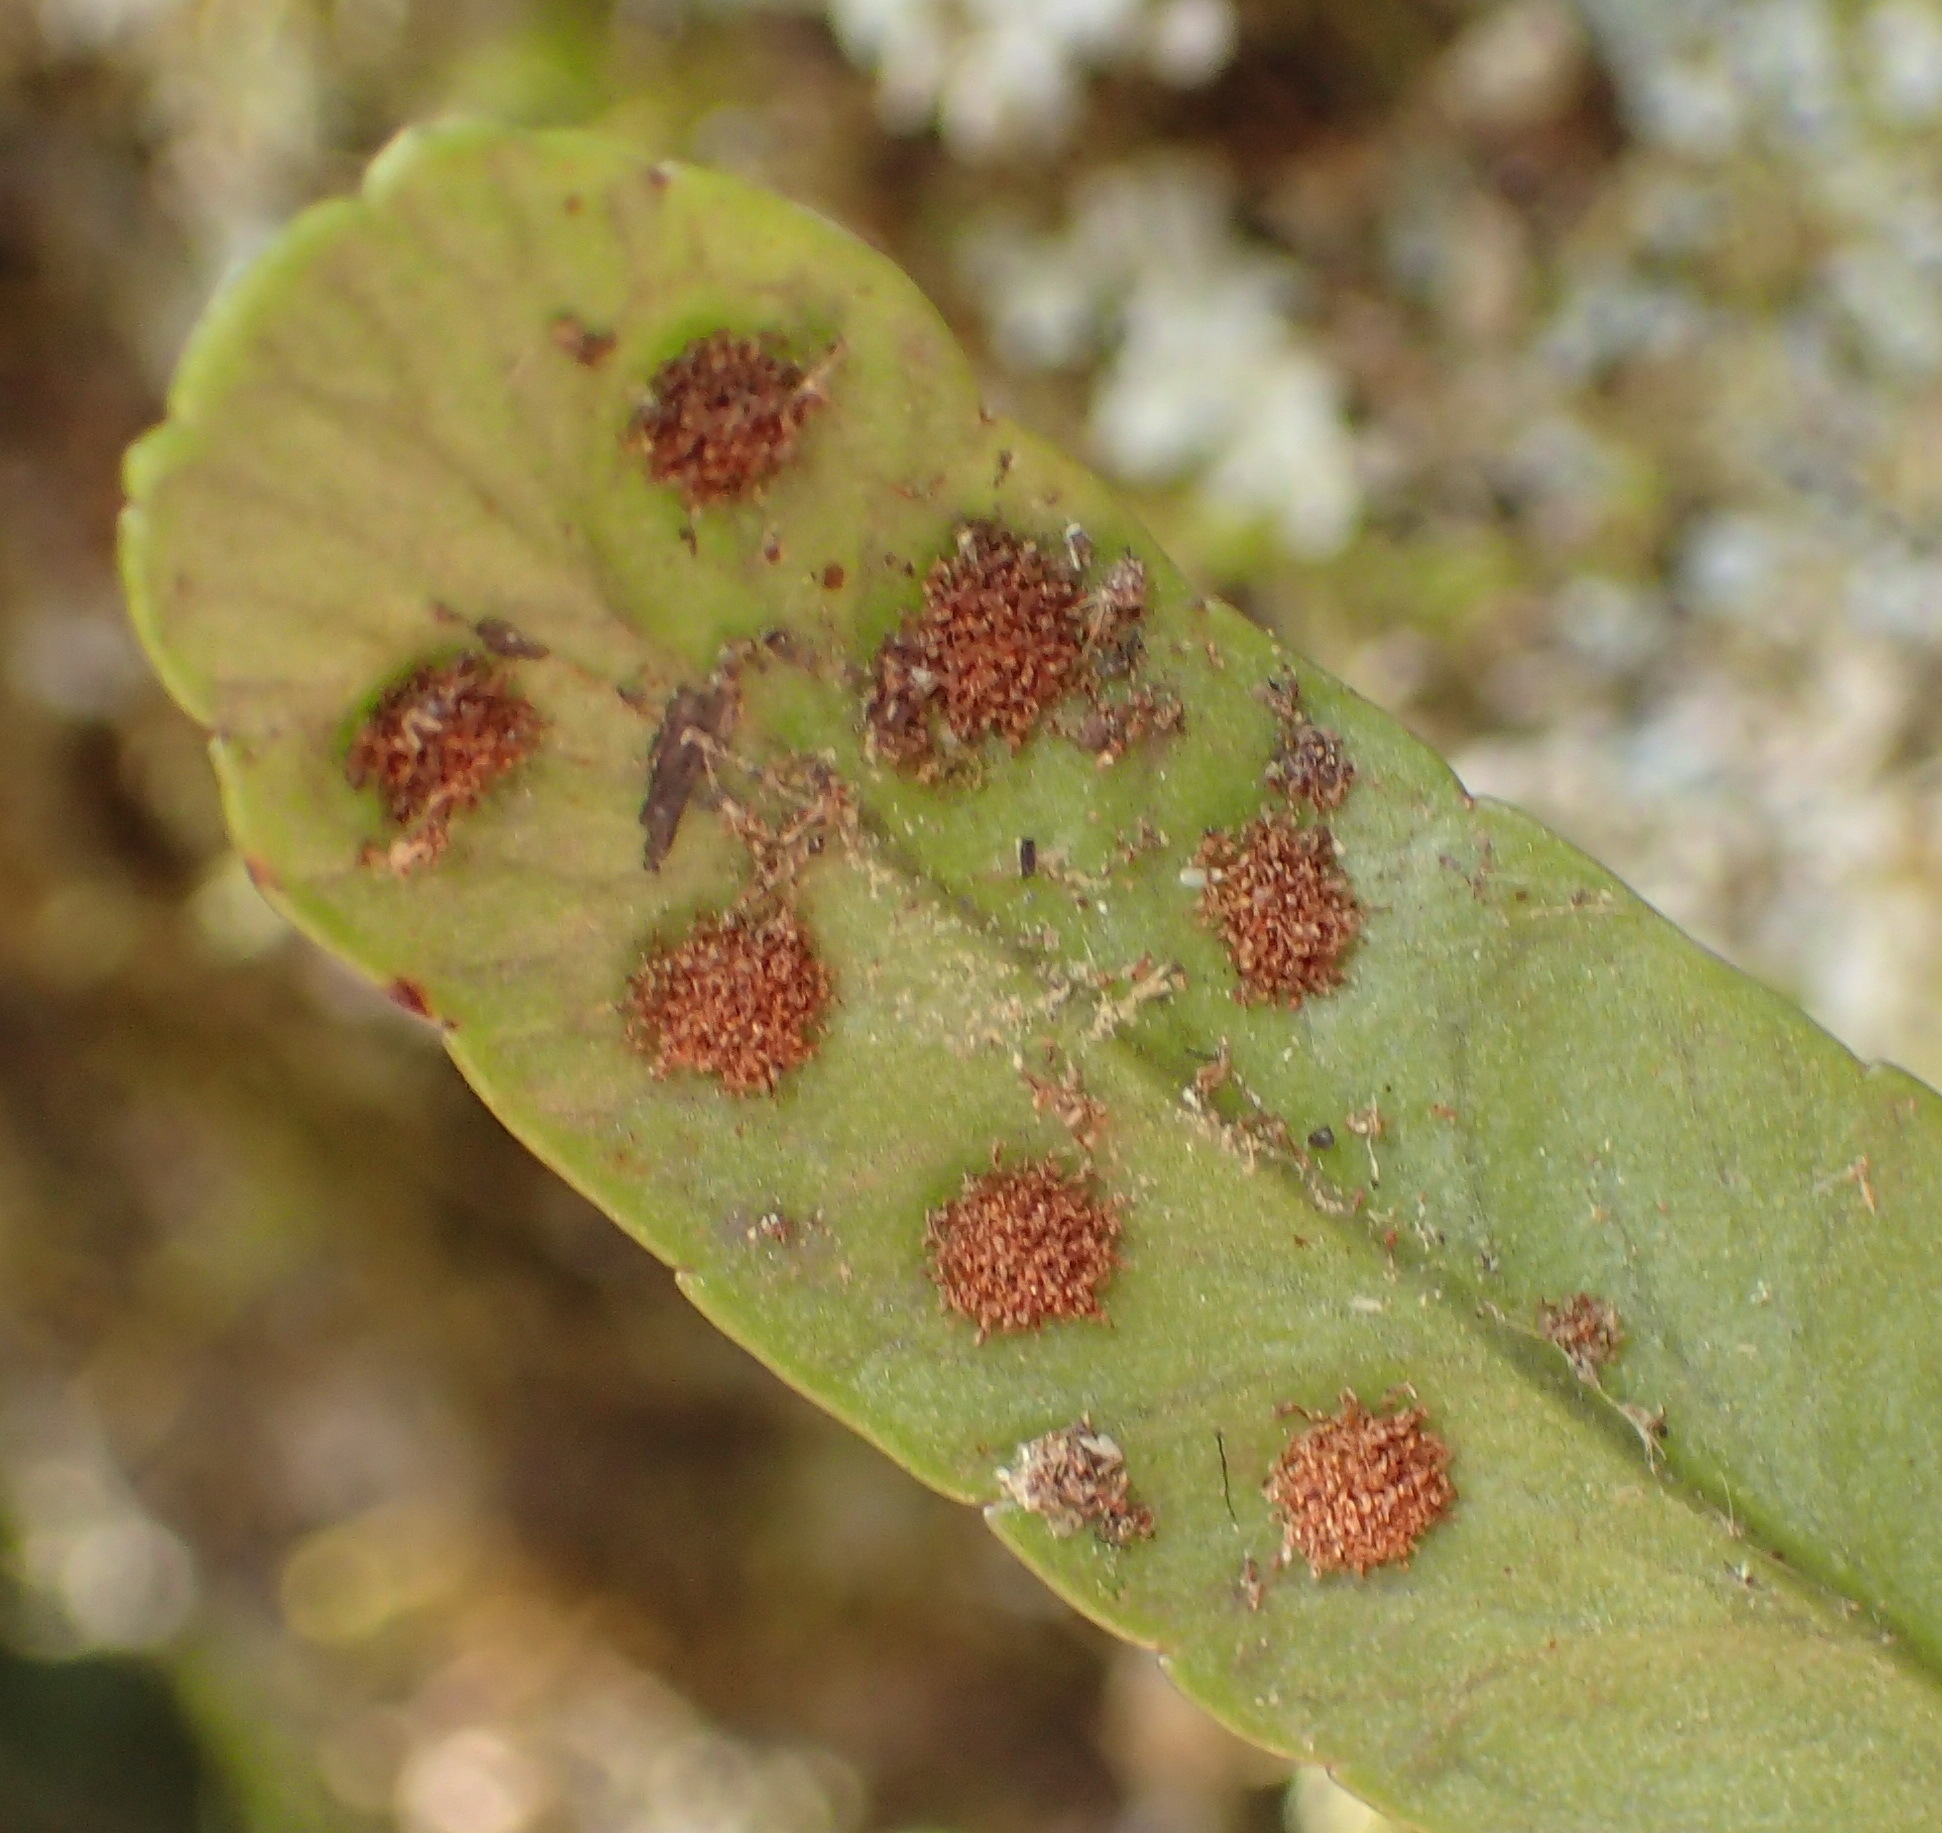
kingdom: Plantae
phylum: Tracheophyta
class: Polypodiopsida
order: Polypodiales
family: Polypodiaceae
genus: Polypodium
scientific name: Polypodium ensiforme
